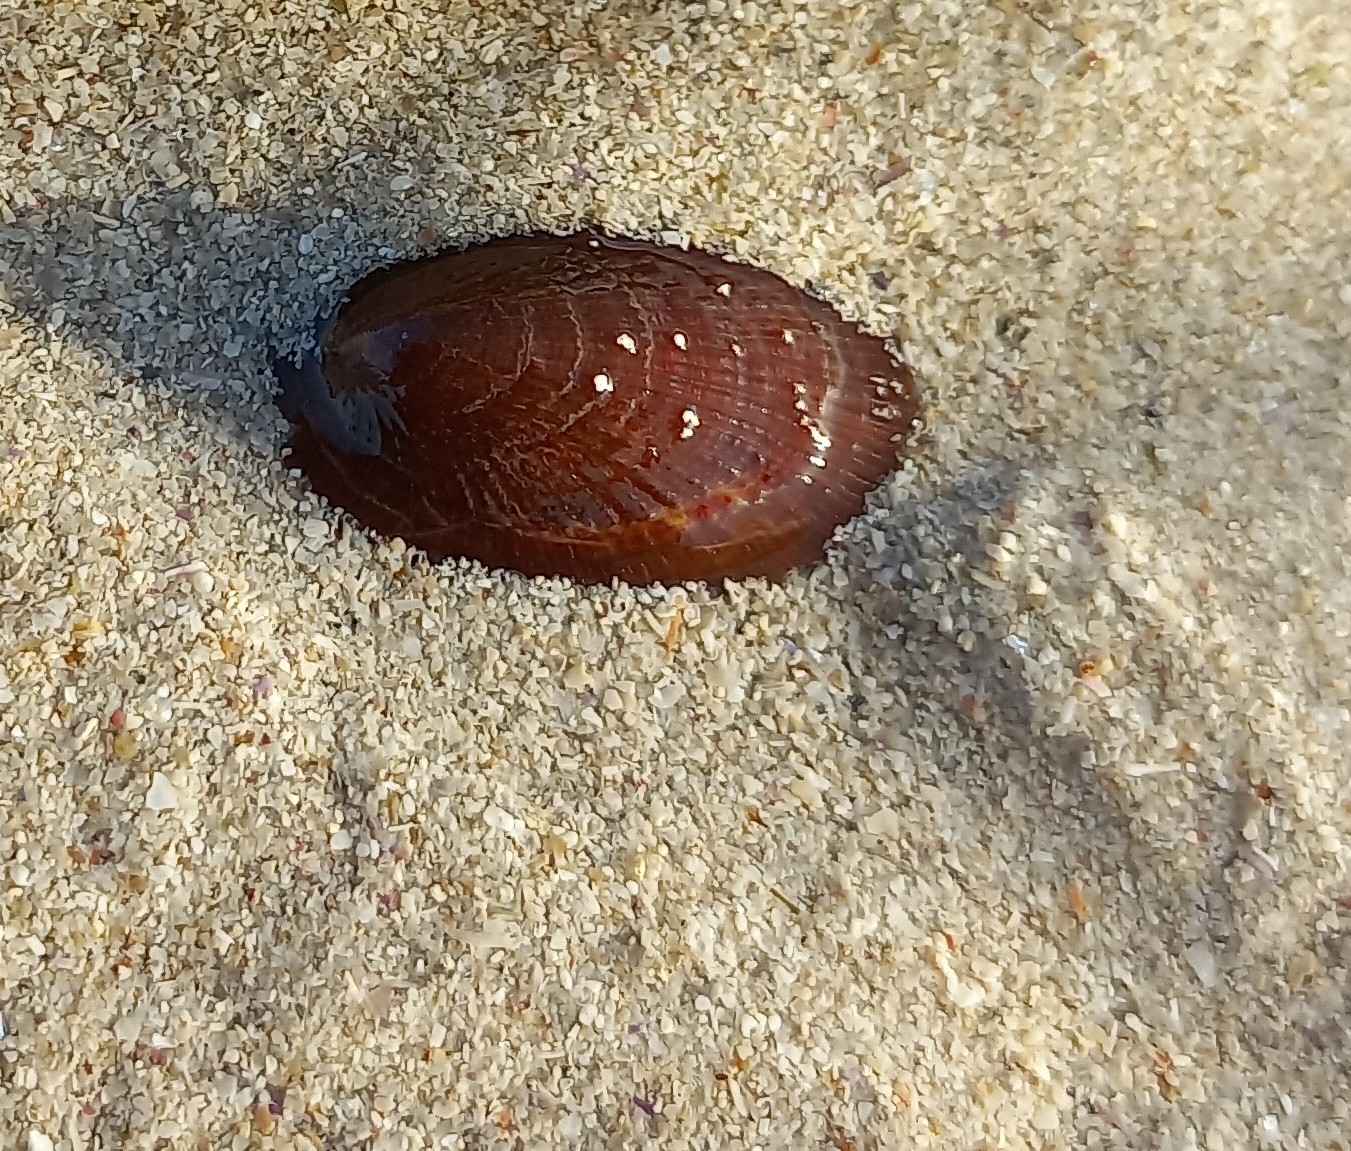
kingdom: Animalia
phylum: Mollusca
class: Gastropoda
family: Patellidae
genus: Cymbula
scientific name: Cymbula compressa
